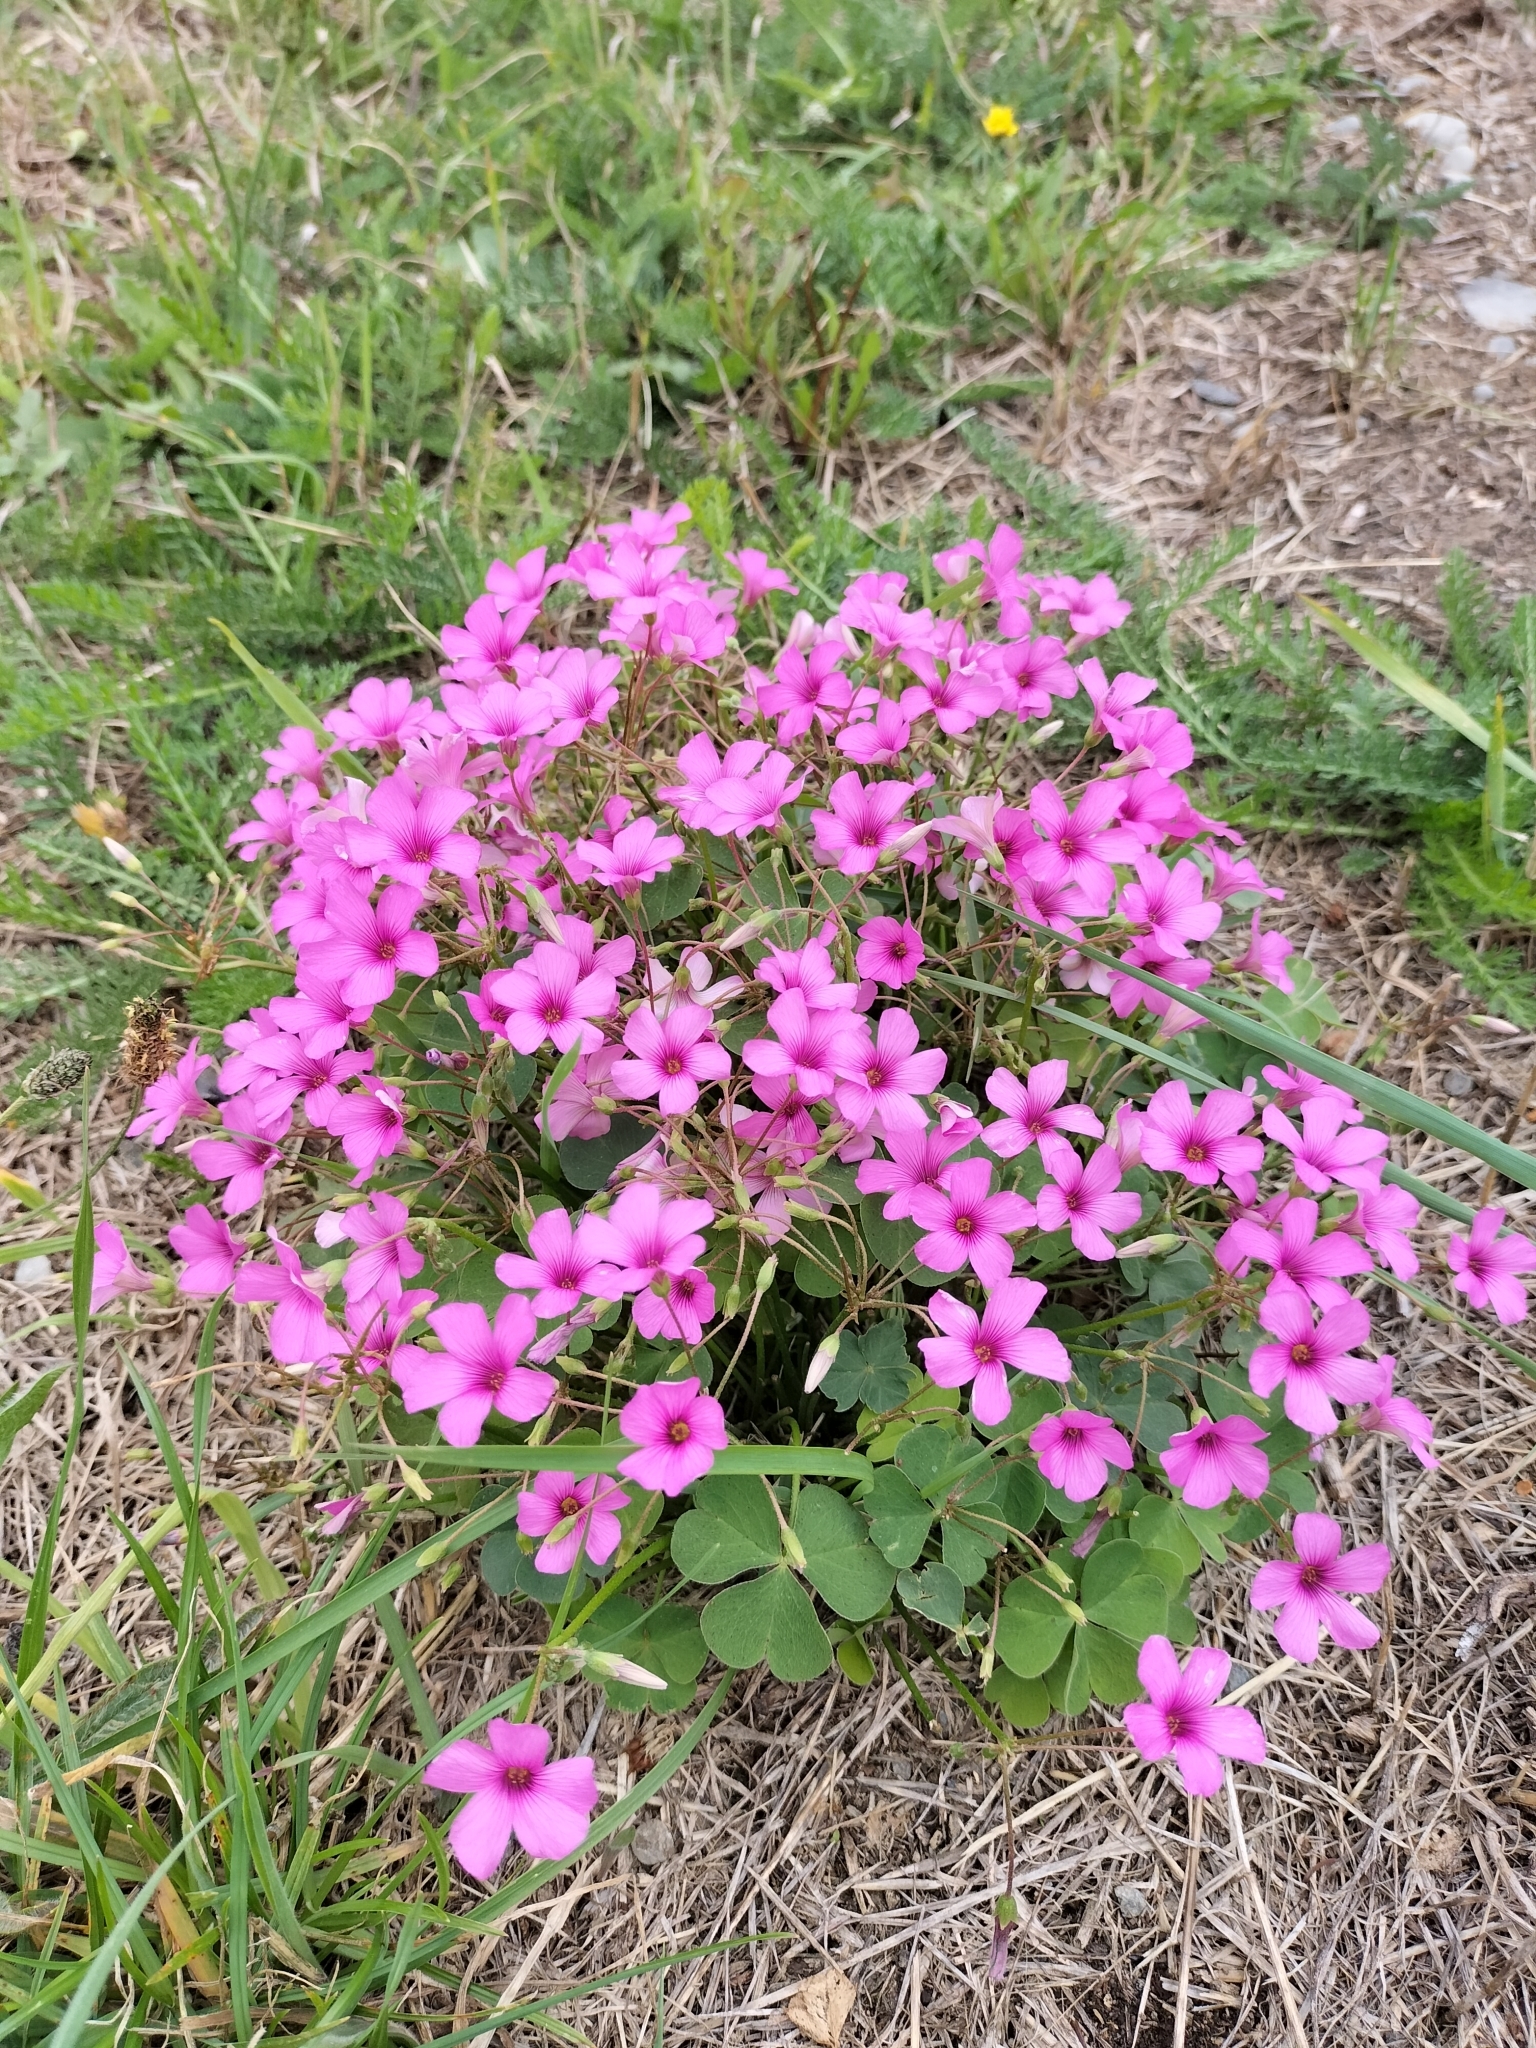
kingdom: Plantae
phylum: Tracheophyta
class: Magnoliopsida
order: Oxalidales
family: Oxalidaceae
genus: Oxalis
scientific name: Oxalis articulata
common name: Pink-sorrel
